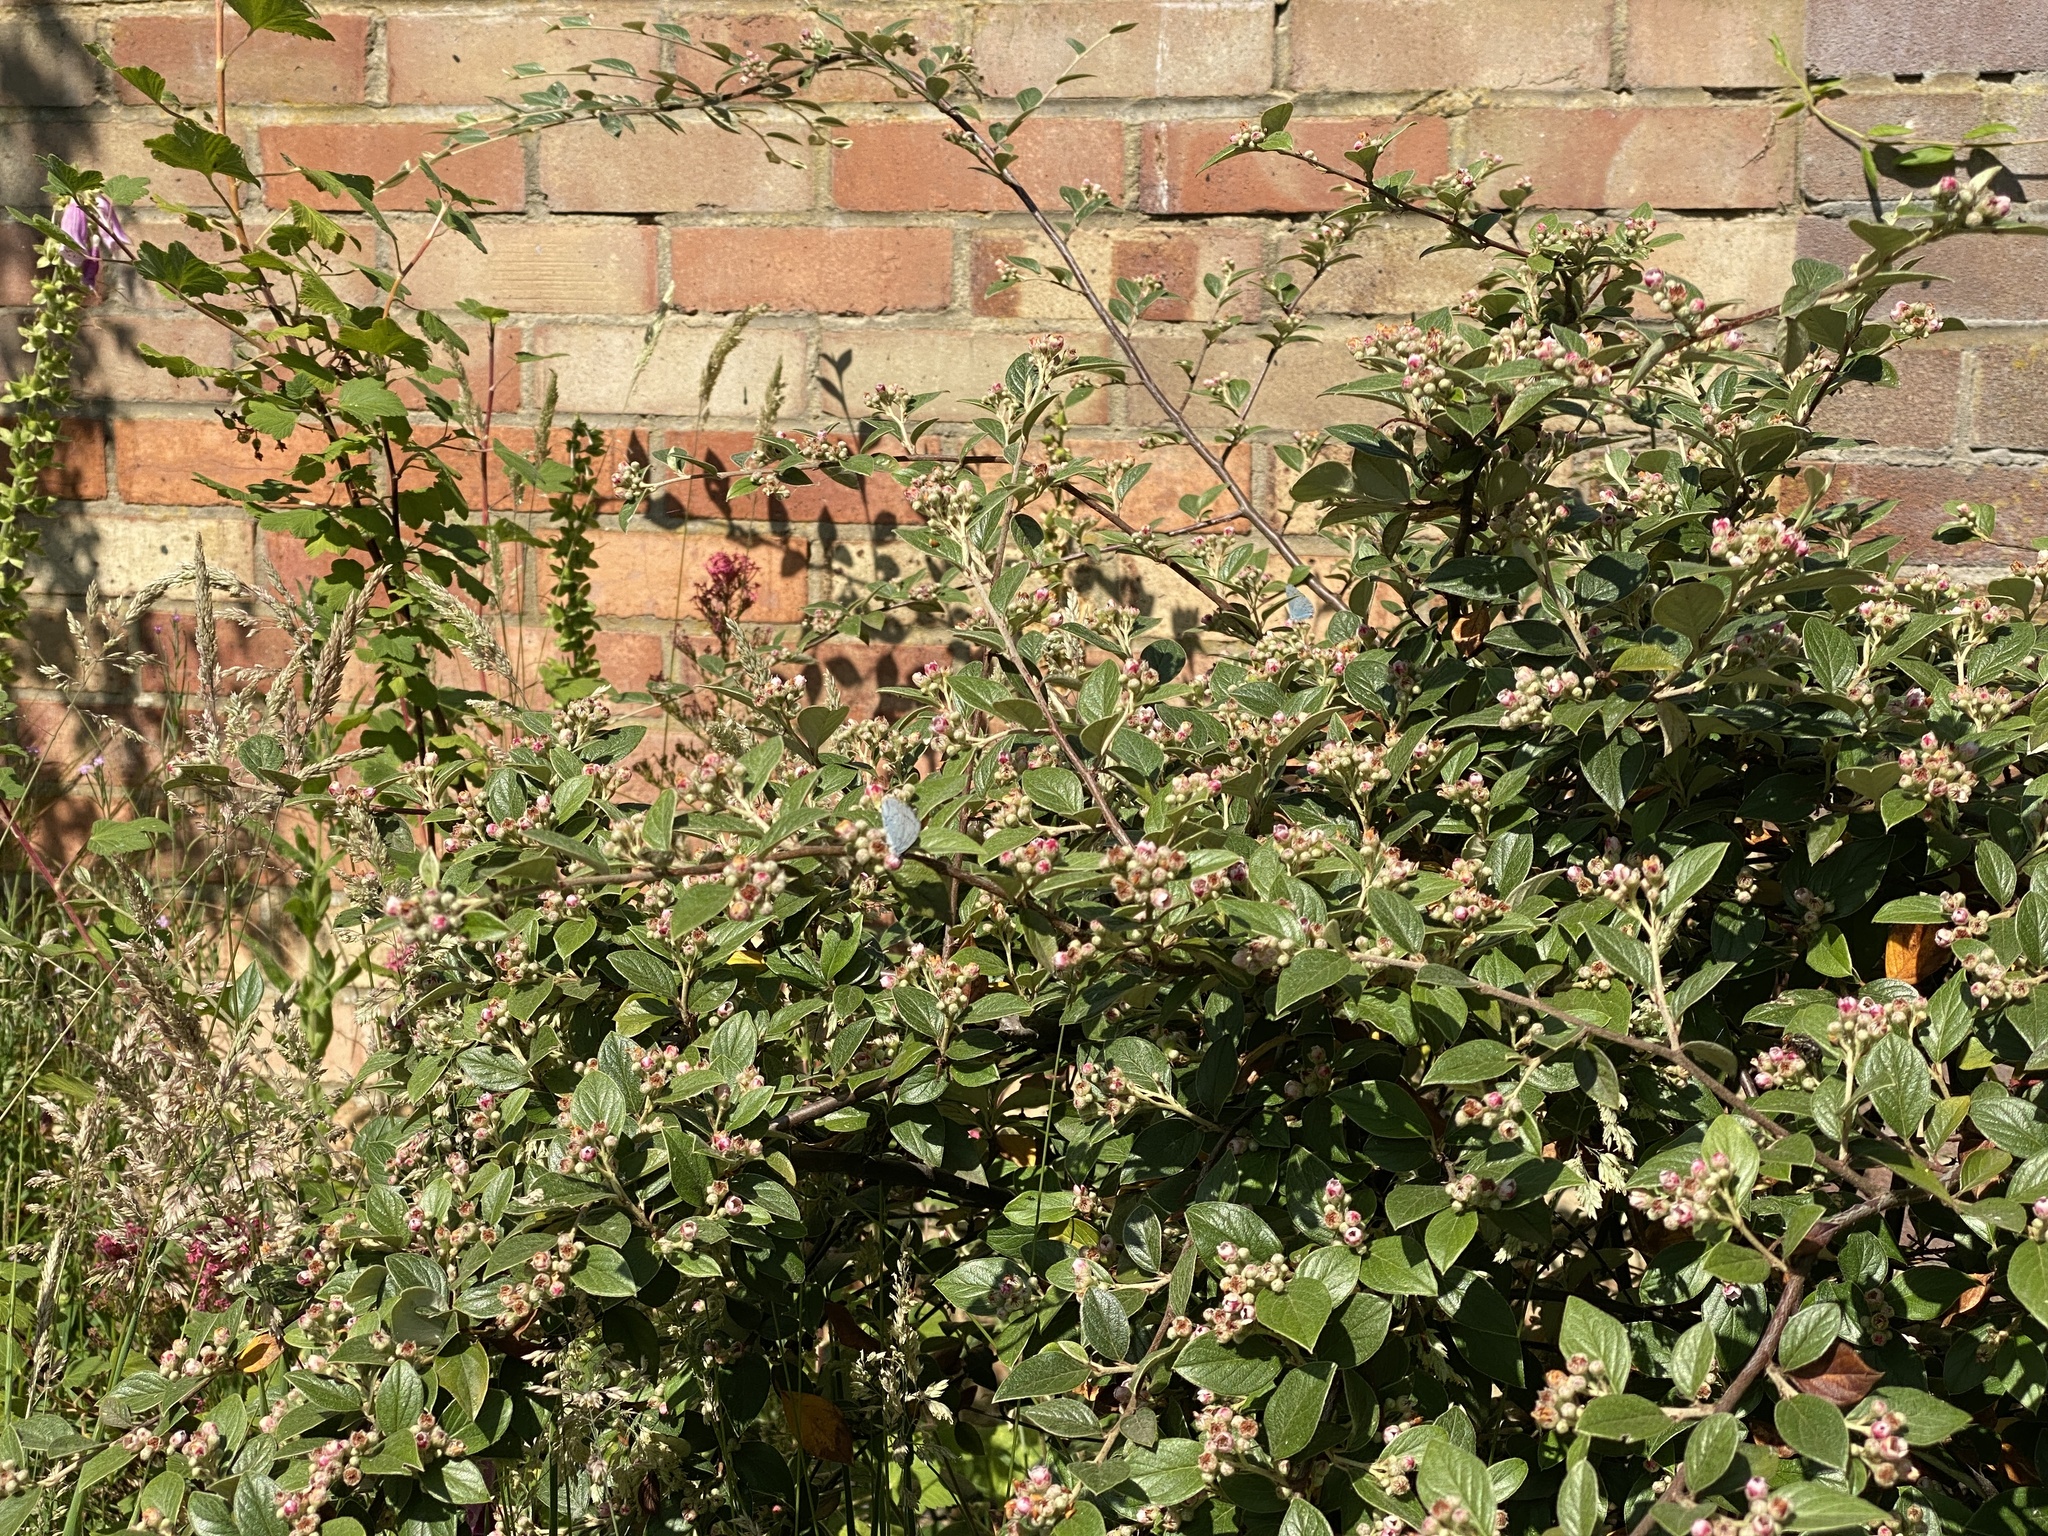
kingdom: Animalia
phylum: Arthropoda
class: Insecta
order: Lepidoptera
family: Lycaenidae
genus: Celastrina
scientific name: Celastrina argiolus
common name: Holly blue
